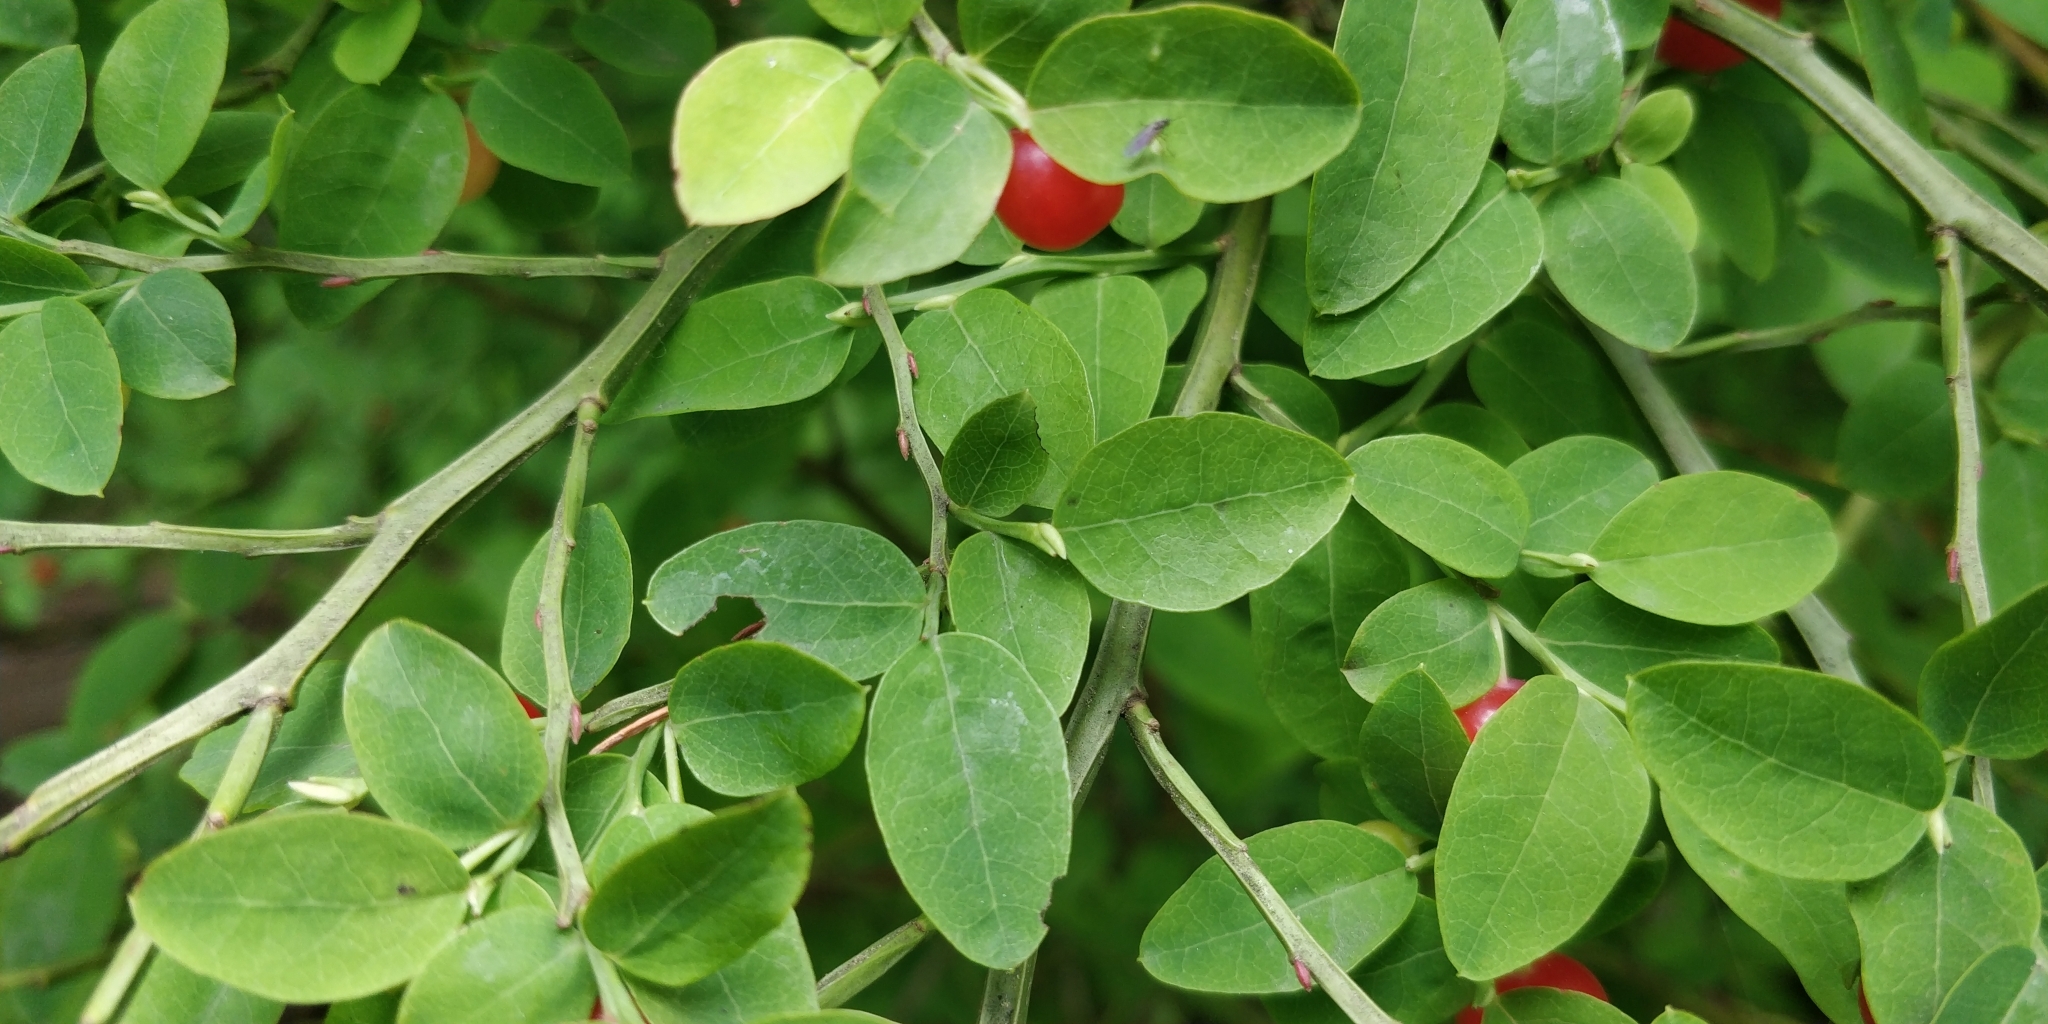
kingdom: Plantae
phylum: Tracheophyta
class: Magnoliopsida
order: Ericales
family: Ericaceae
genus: Vaccinium
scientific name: Vaccinium parvifolium
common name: Red-huckleberry
